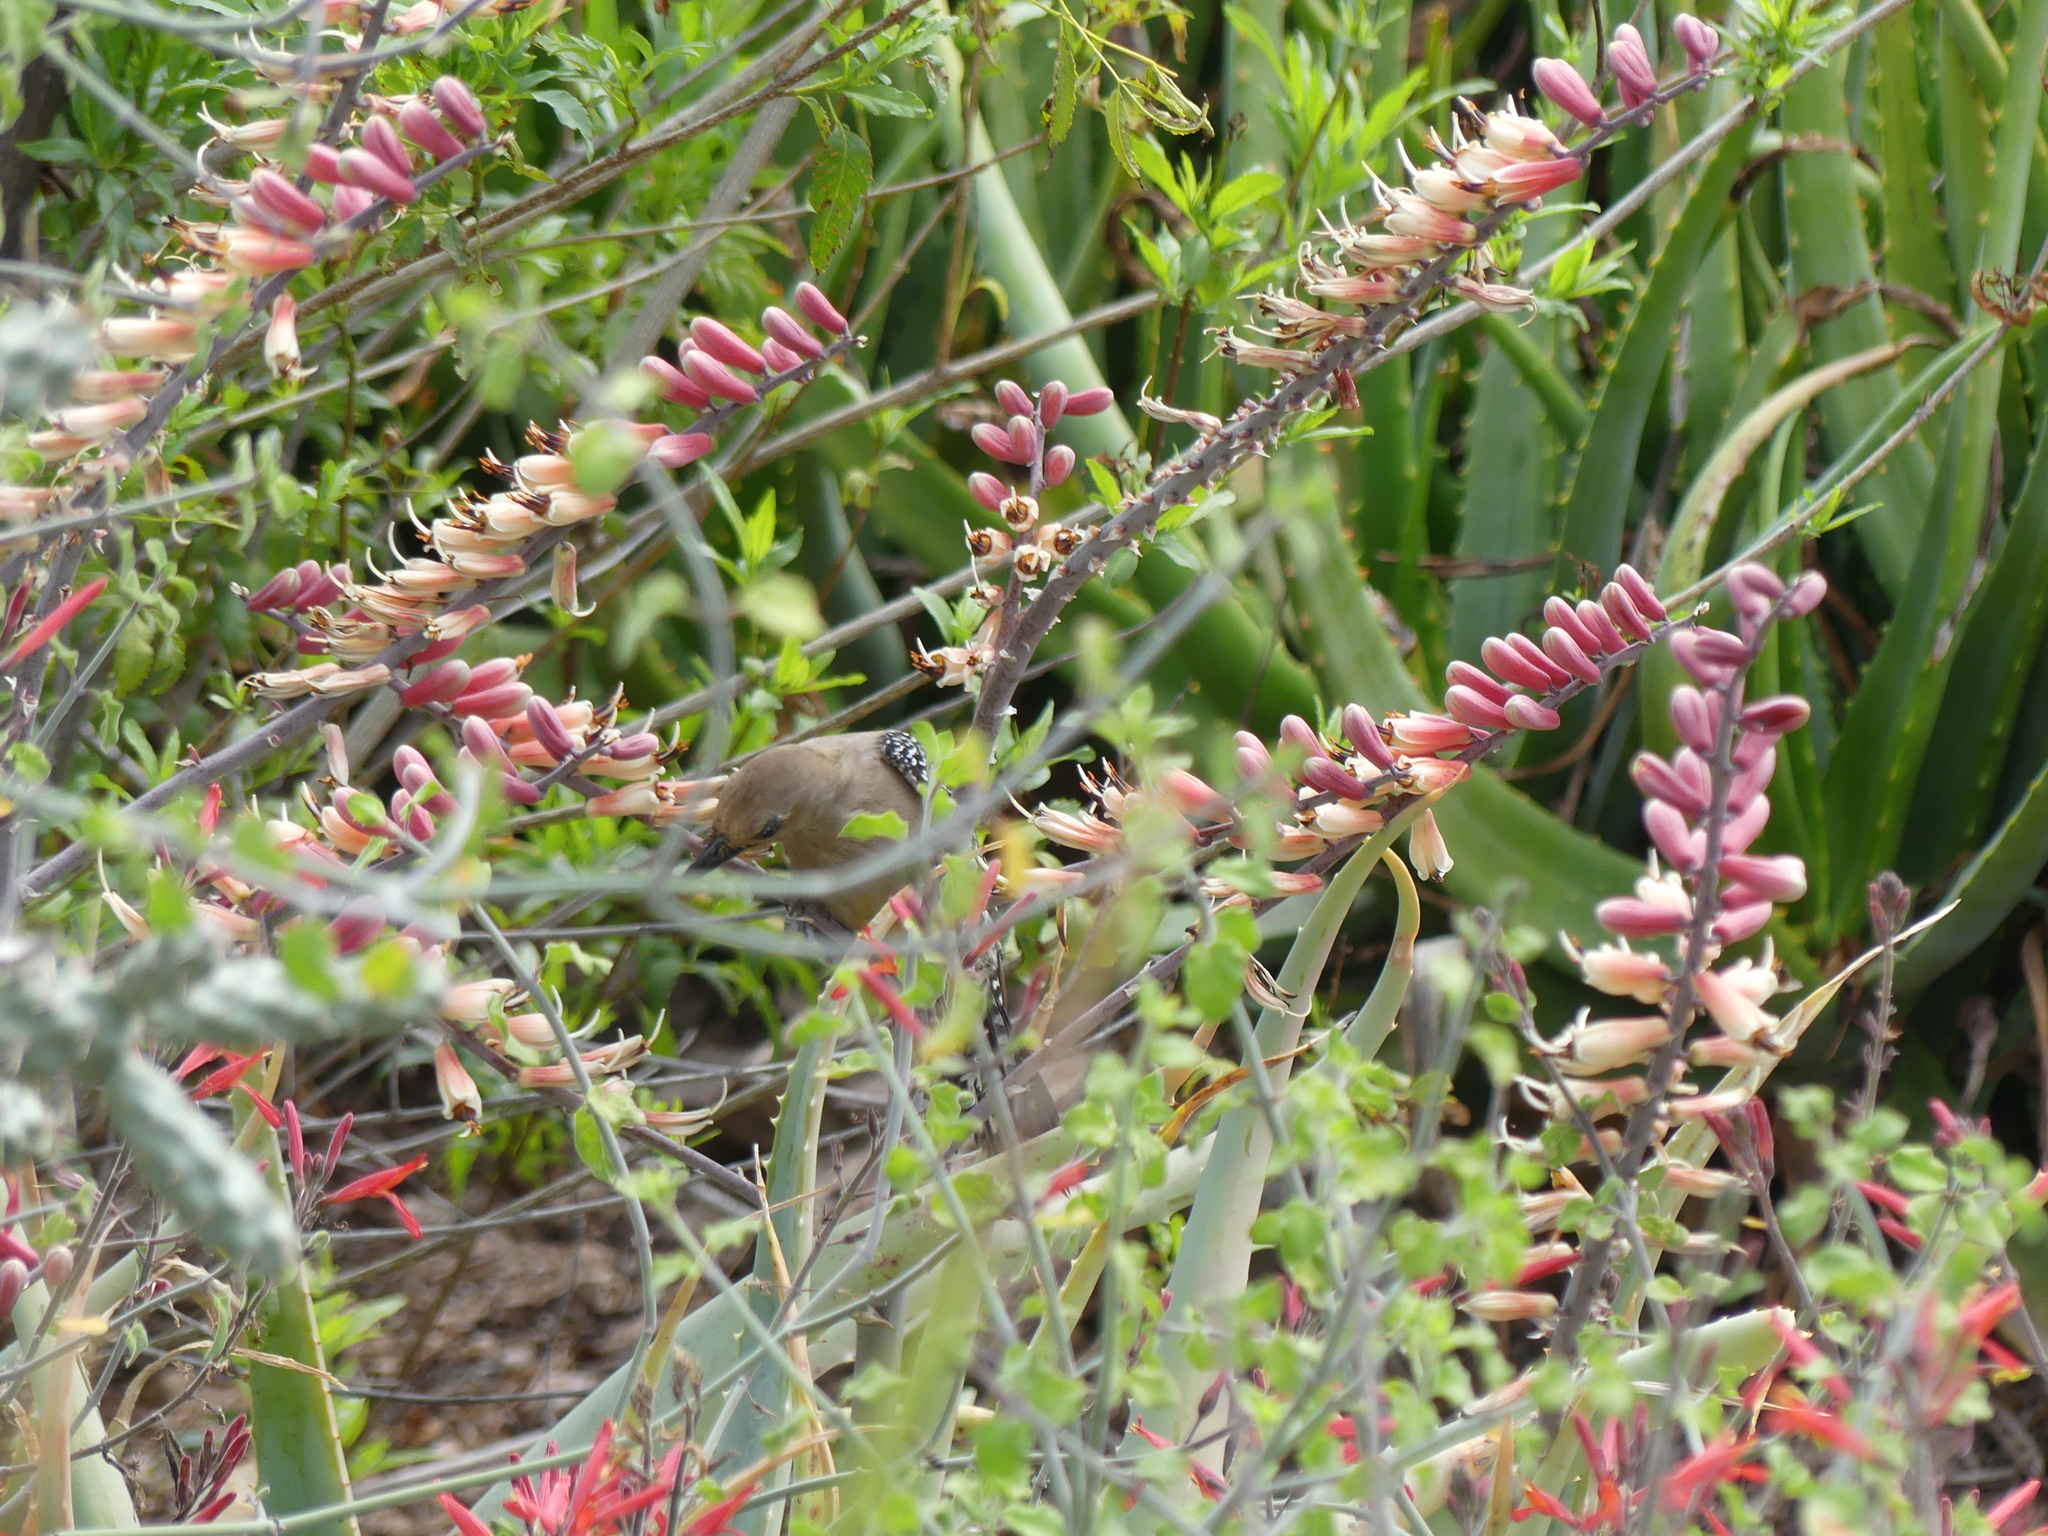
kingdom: Animalia
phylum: Chordata
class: Aves
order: Piciformes
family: Picidae
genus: Melanerpes
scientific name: Melanerpes uropygialis
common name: Gila woodpecker
